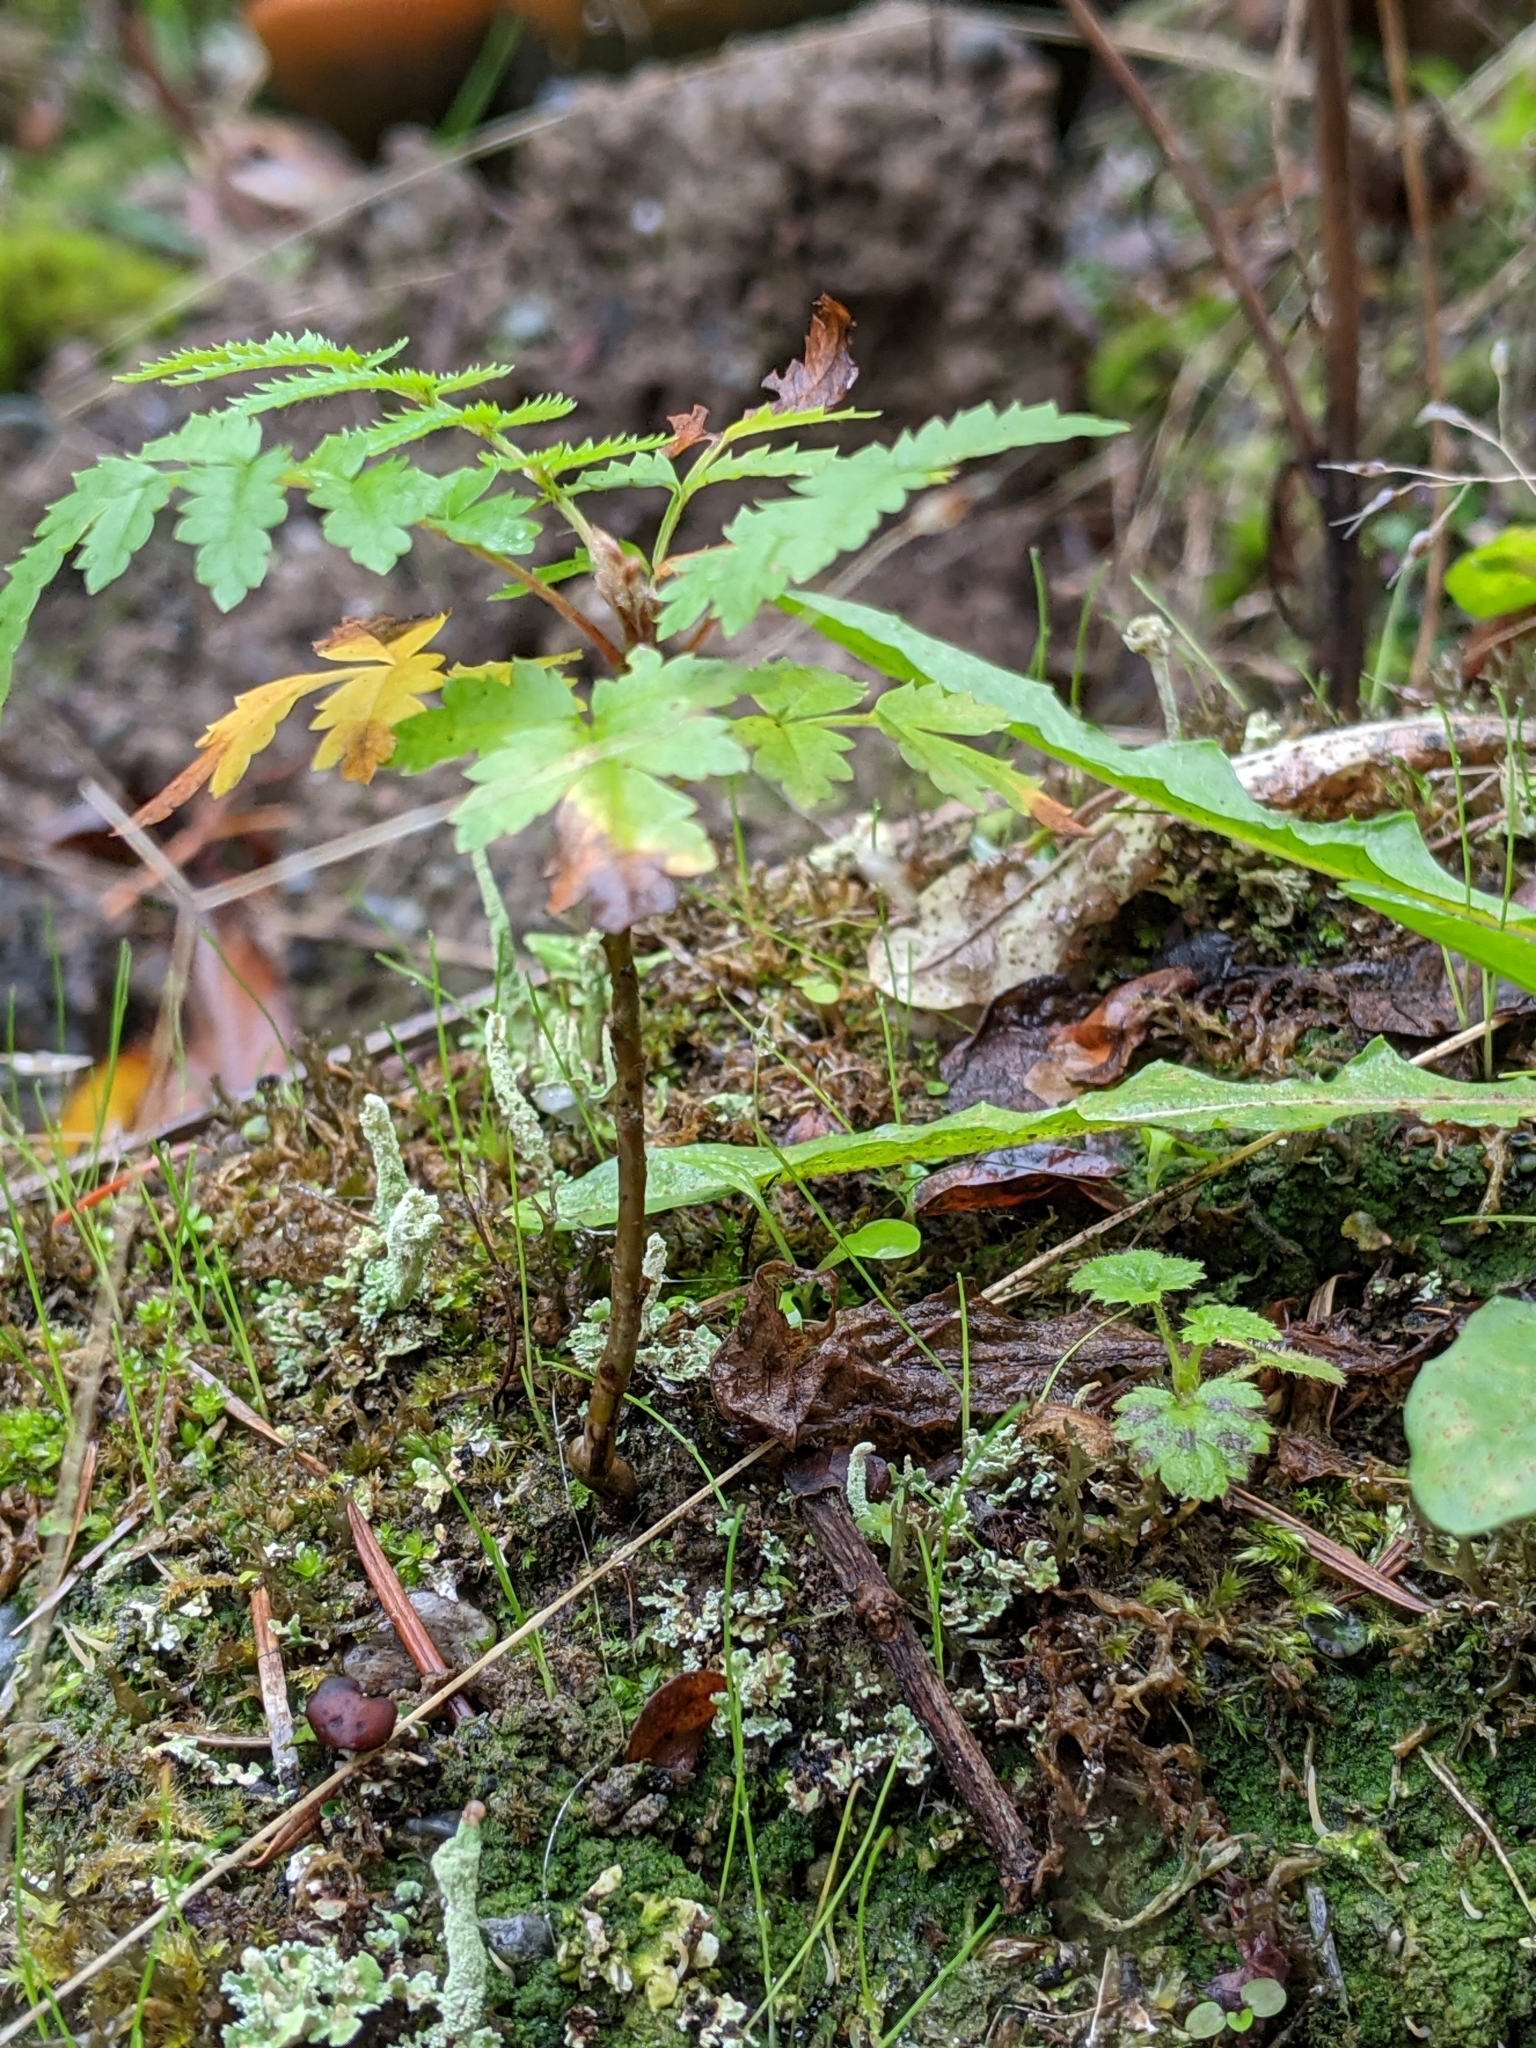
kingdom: Plantae
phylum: Tracheophyta
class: Magnoliopsida
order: Rosales
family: Rosaceae
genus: Sorbus
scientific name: Sorbus aucuparia
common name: Rowan
